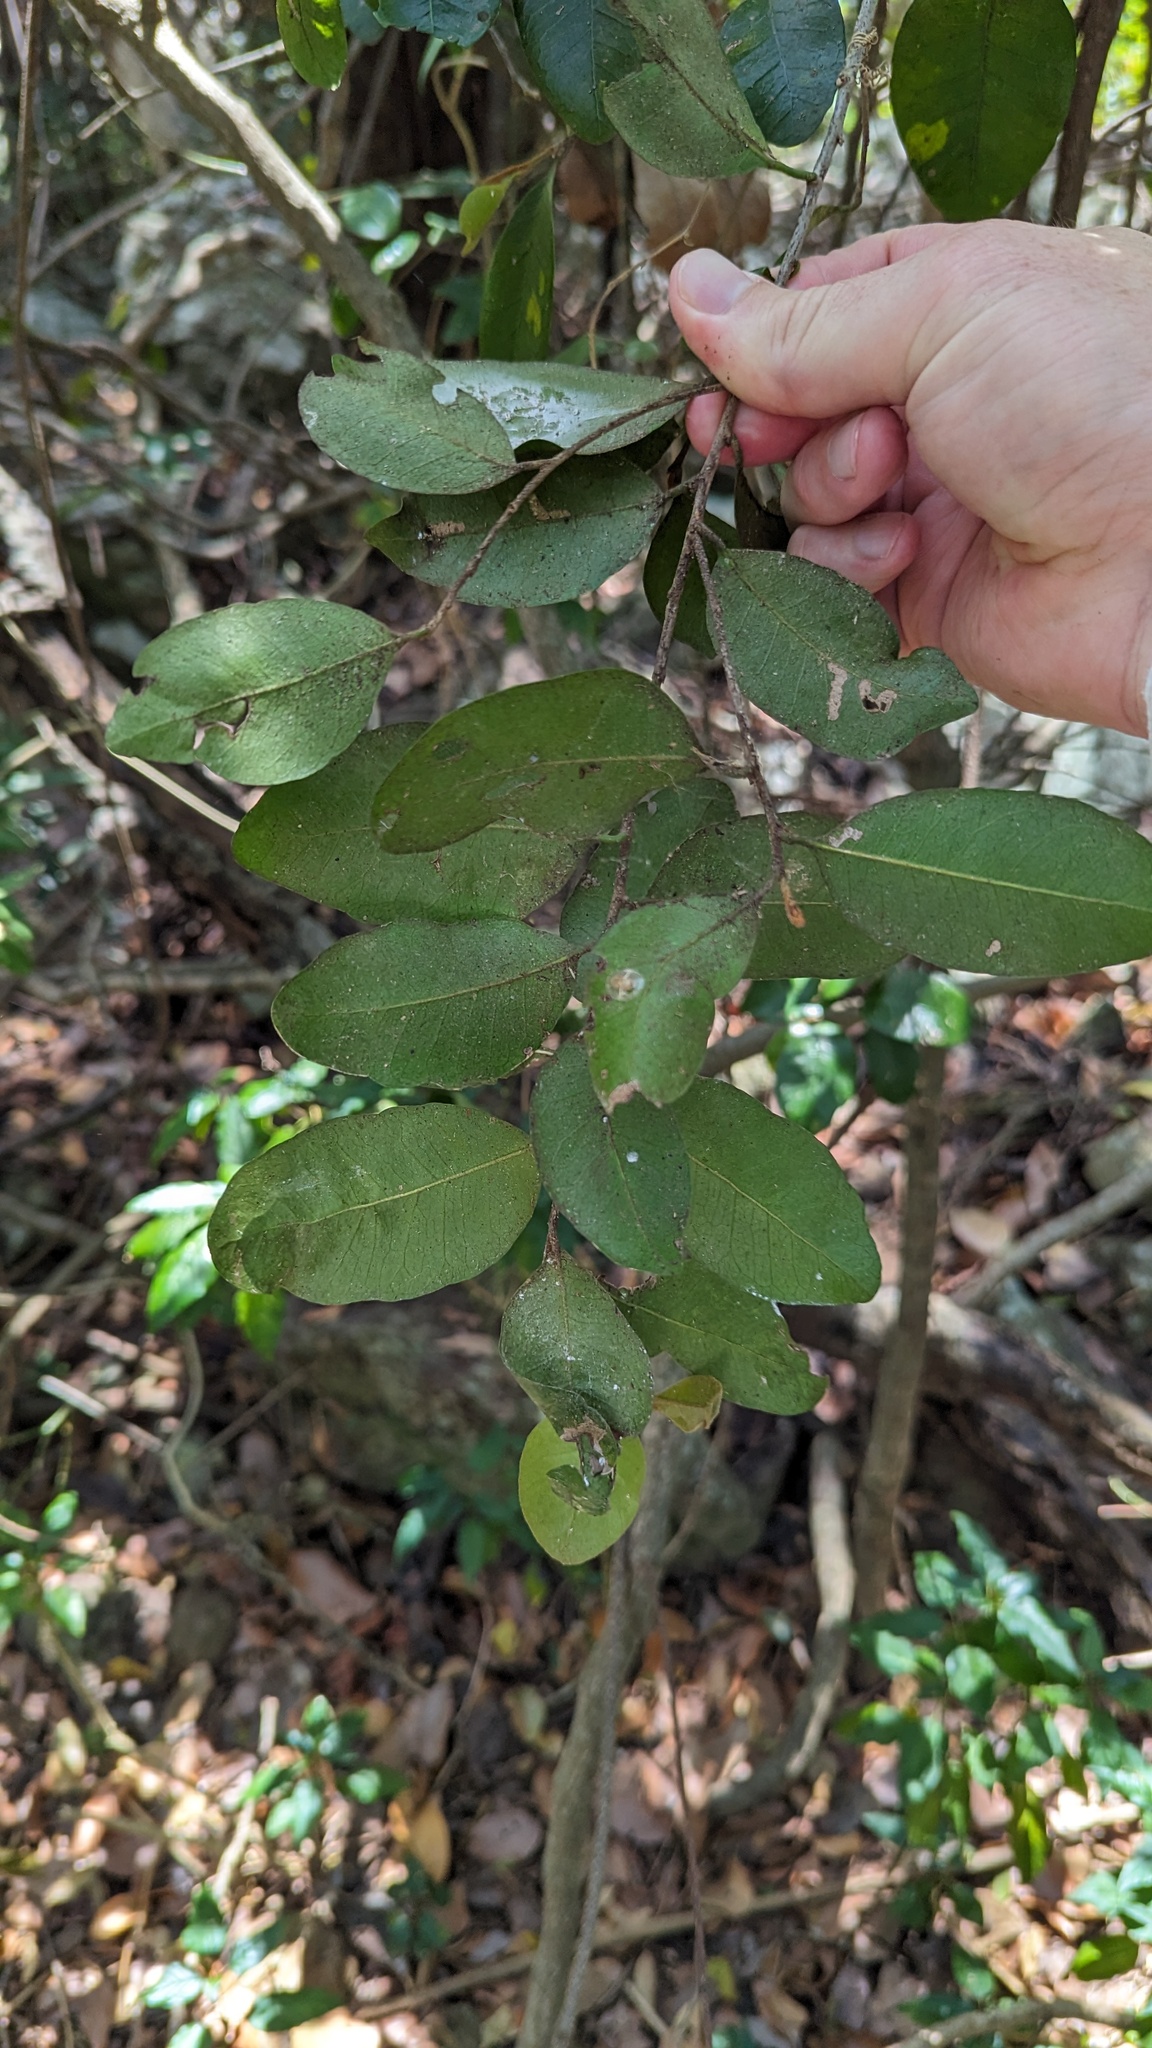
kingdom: Plantae
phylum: Tracheophyta
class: Magnoliopsida
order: Ericales
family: Sapotaceae
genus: Planchonella
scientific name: Planchonella myrsinifolia
